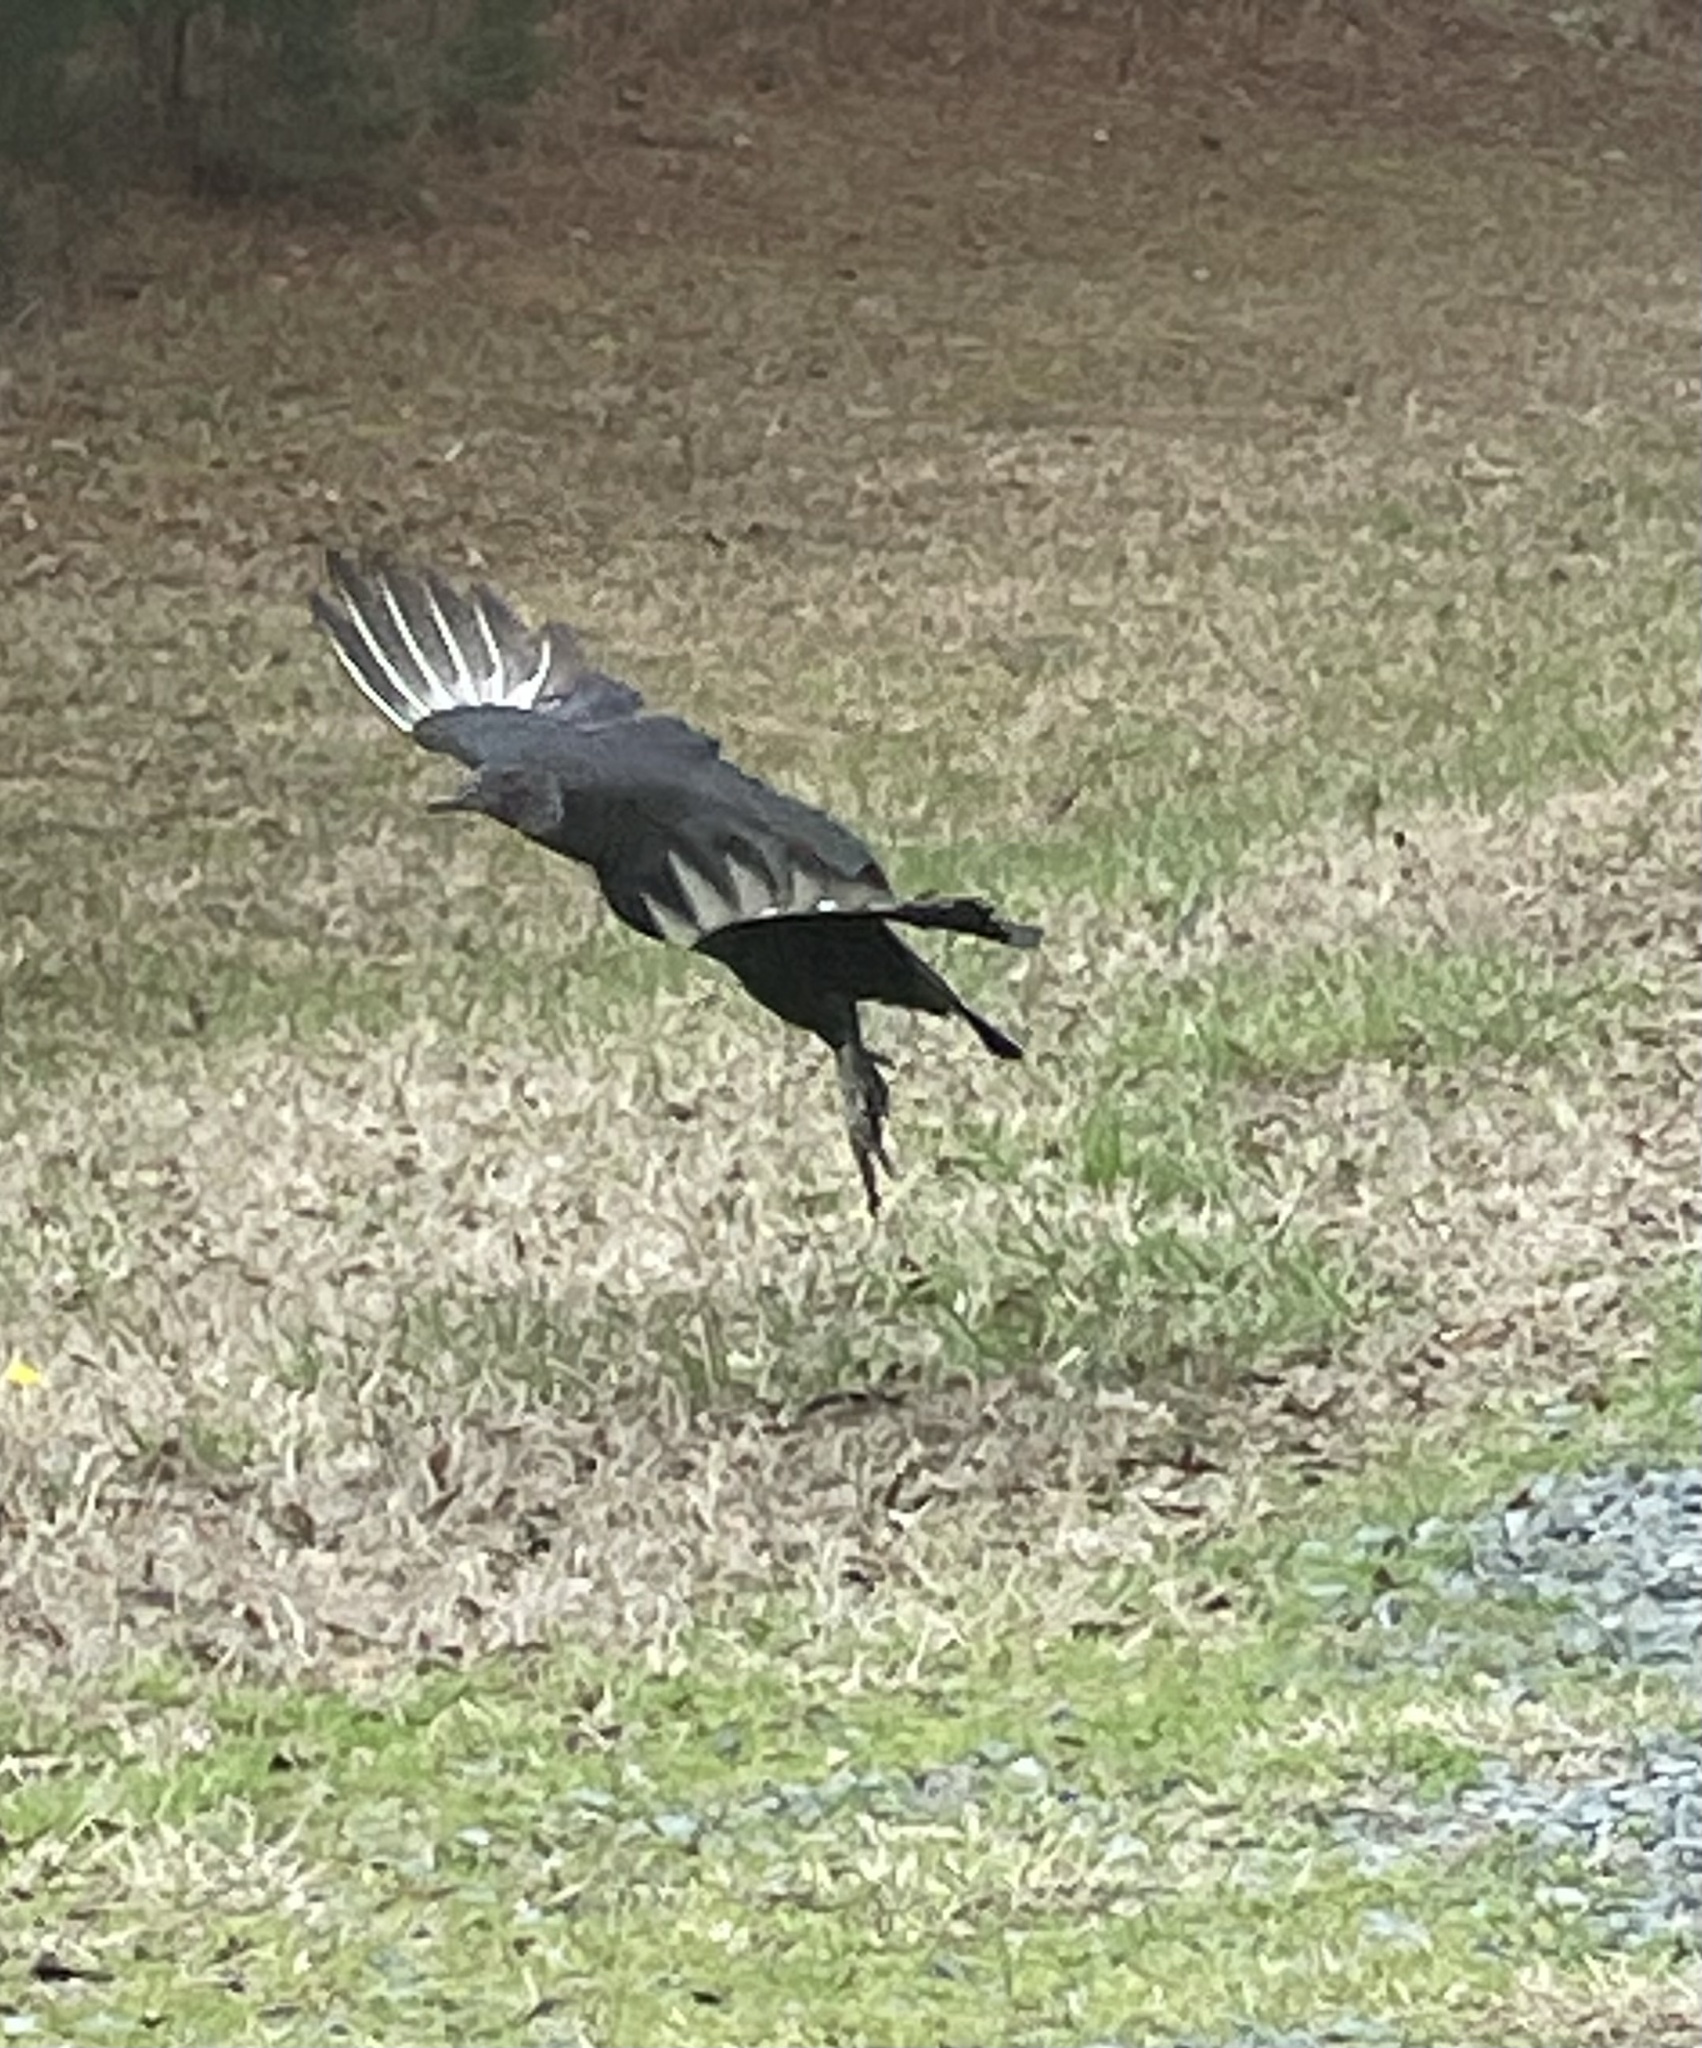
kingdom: Animalia
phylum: Chordata
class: Aves
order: Accipitriformes
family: Cathartidae
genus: Coragyps
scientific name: Coragyps atratus
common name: Black vulture
